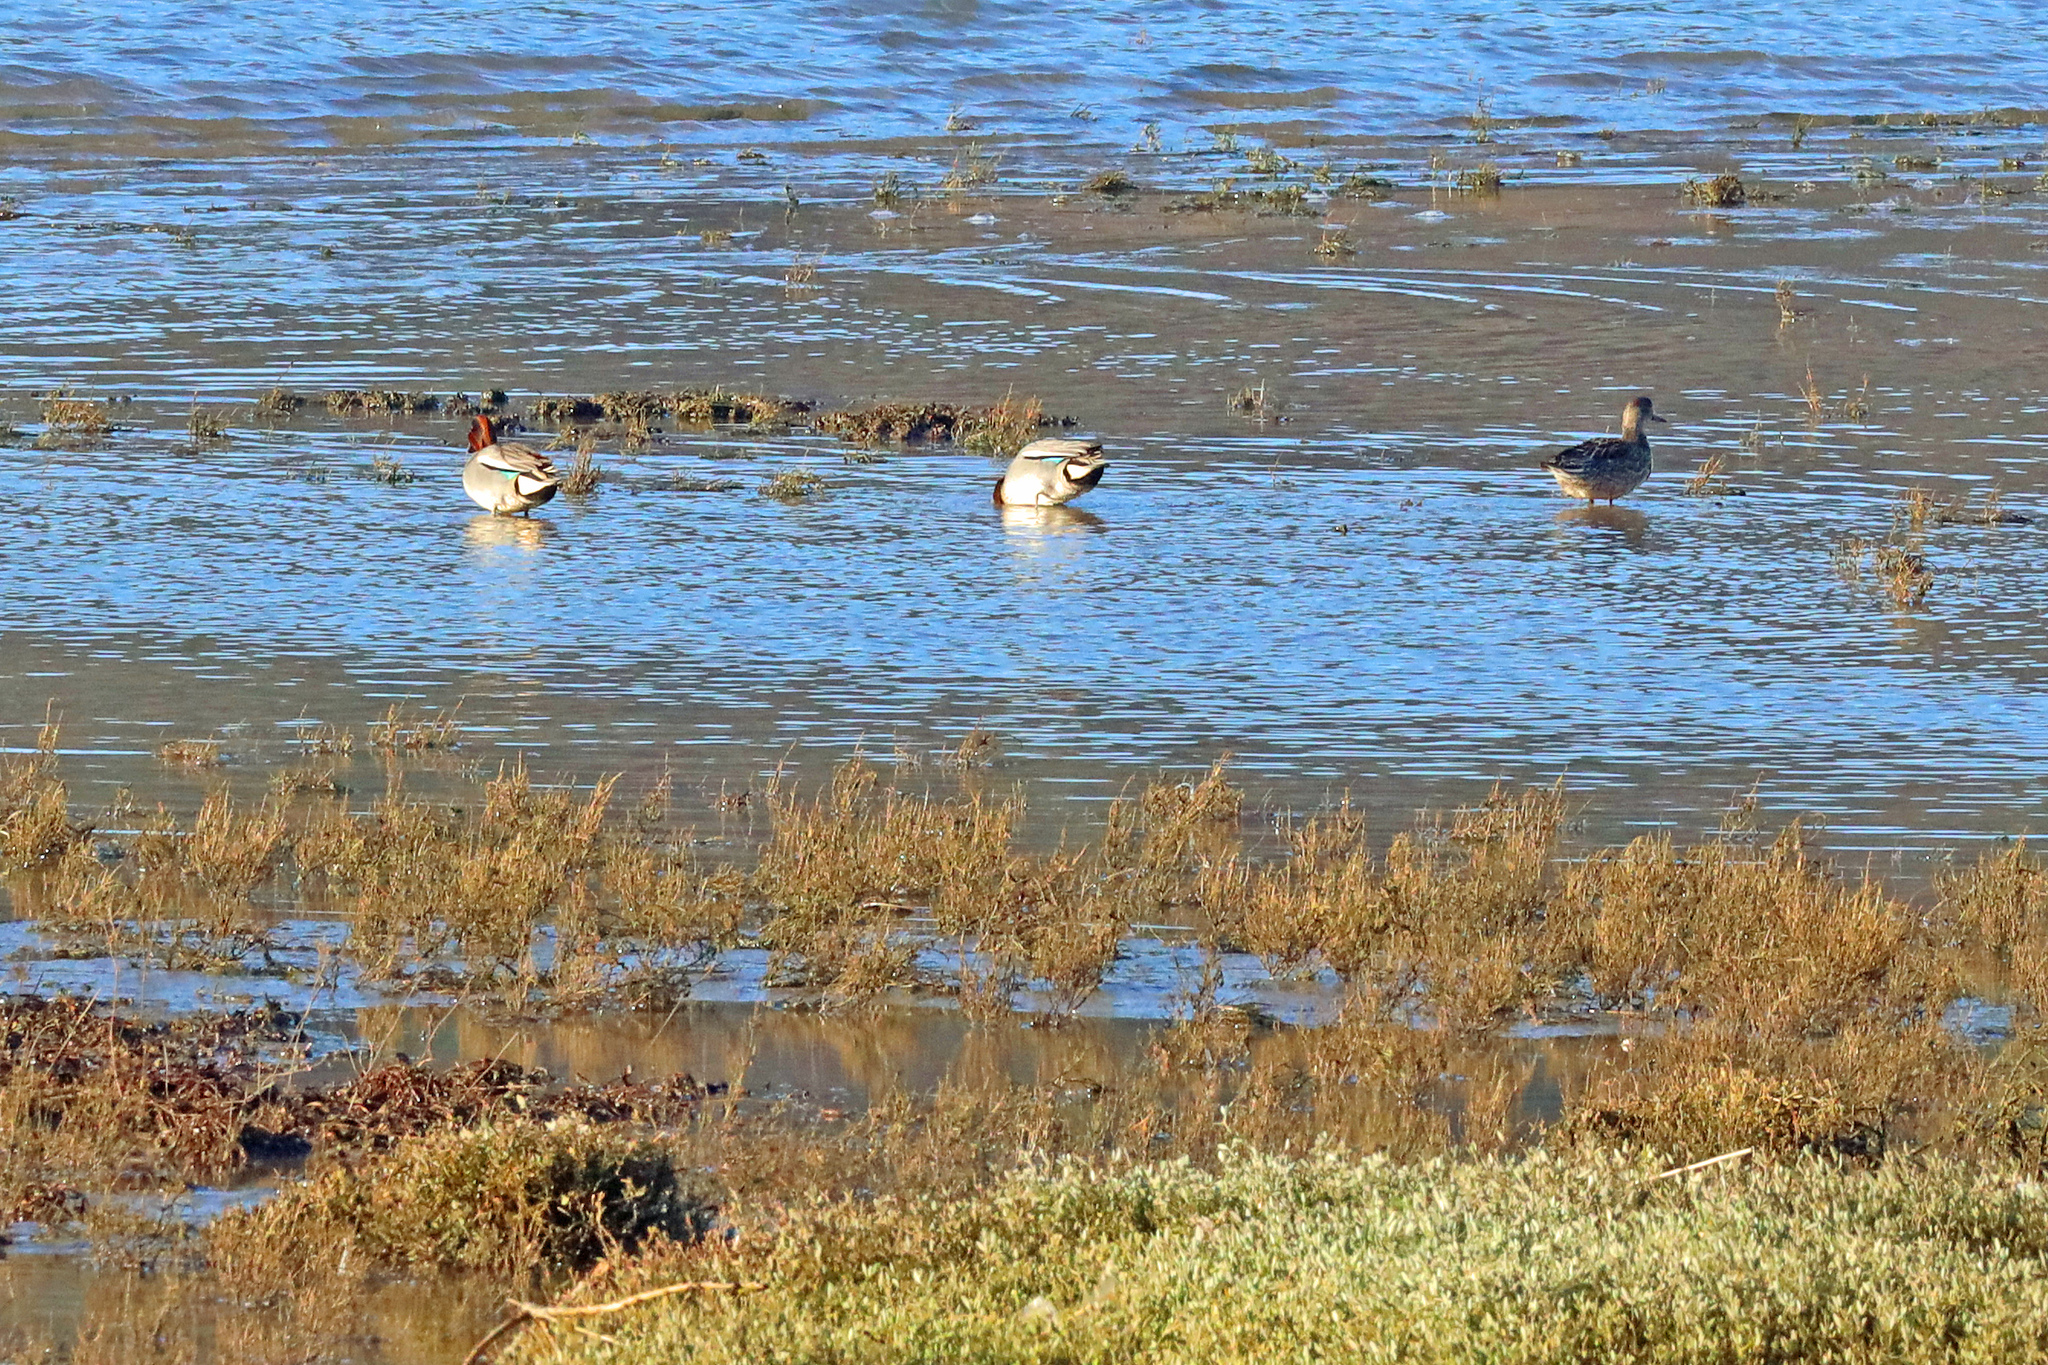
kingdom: Animalia
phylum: Chordata
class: Aves
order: Anseriformes
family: Anatidae
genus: Anas
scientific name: Anas crecca
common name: Eurasian teal
